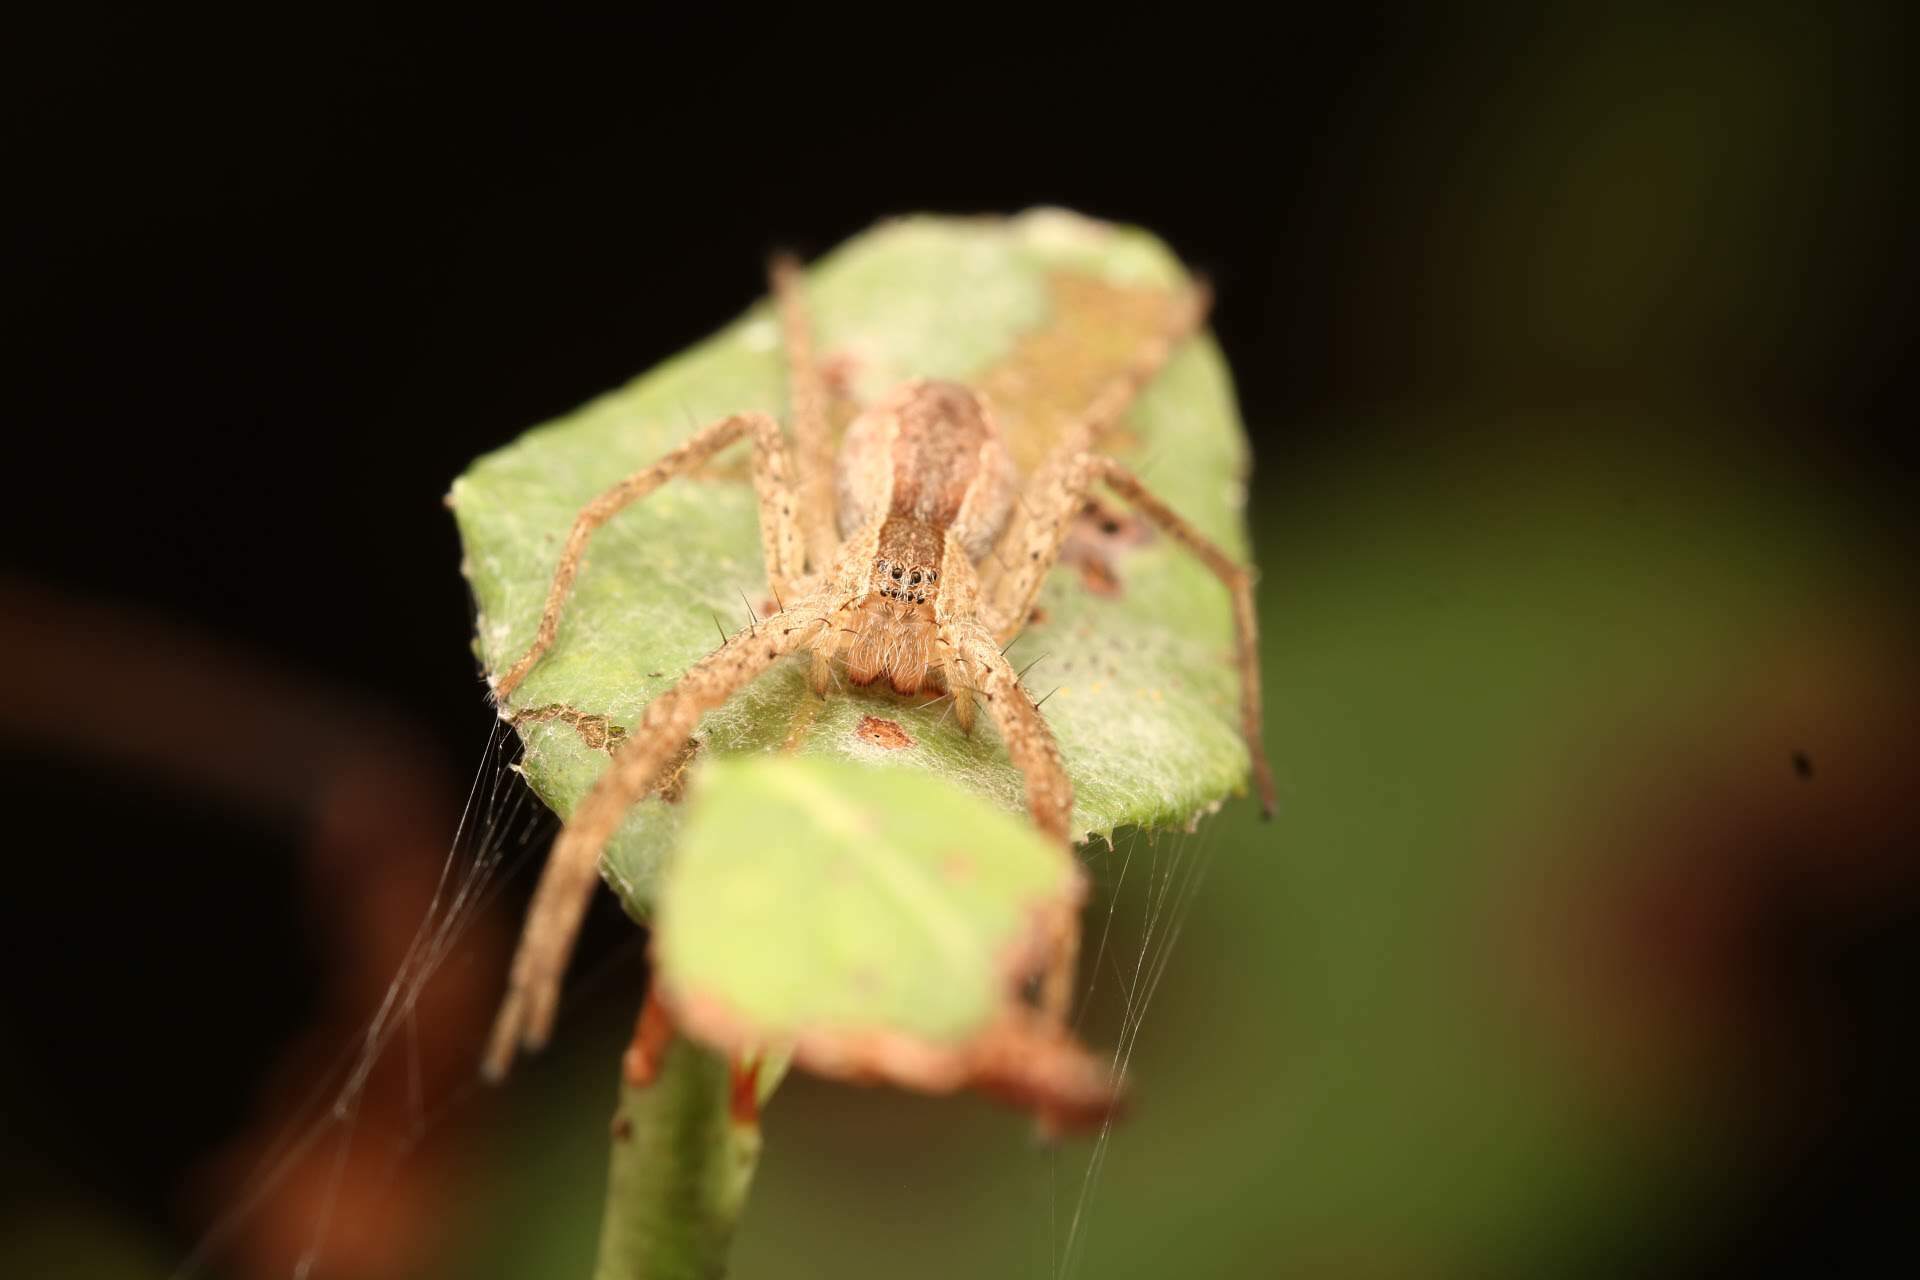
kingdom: Animalia
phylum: Arthropoda
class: Arachnida
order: Araneae
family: Pisauridae
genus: Pisaurina
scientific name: Pisaurina mira
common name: American nursery web spider
